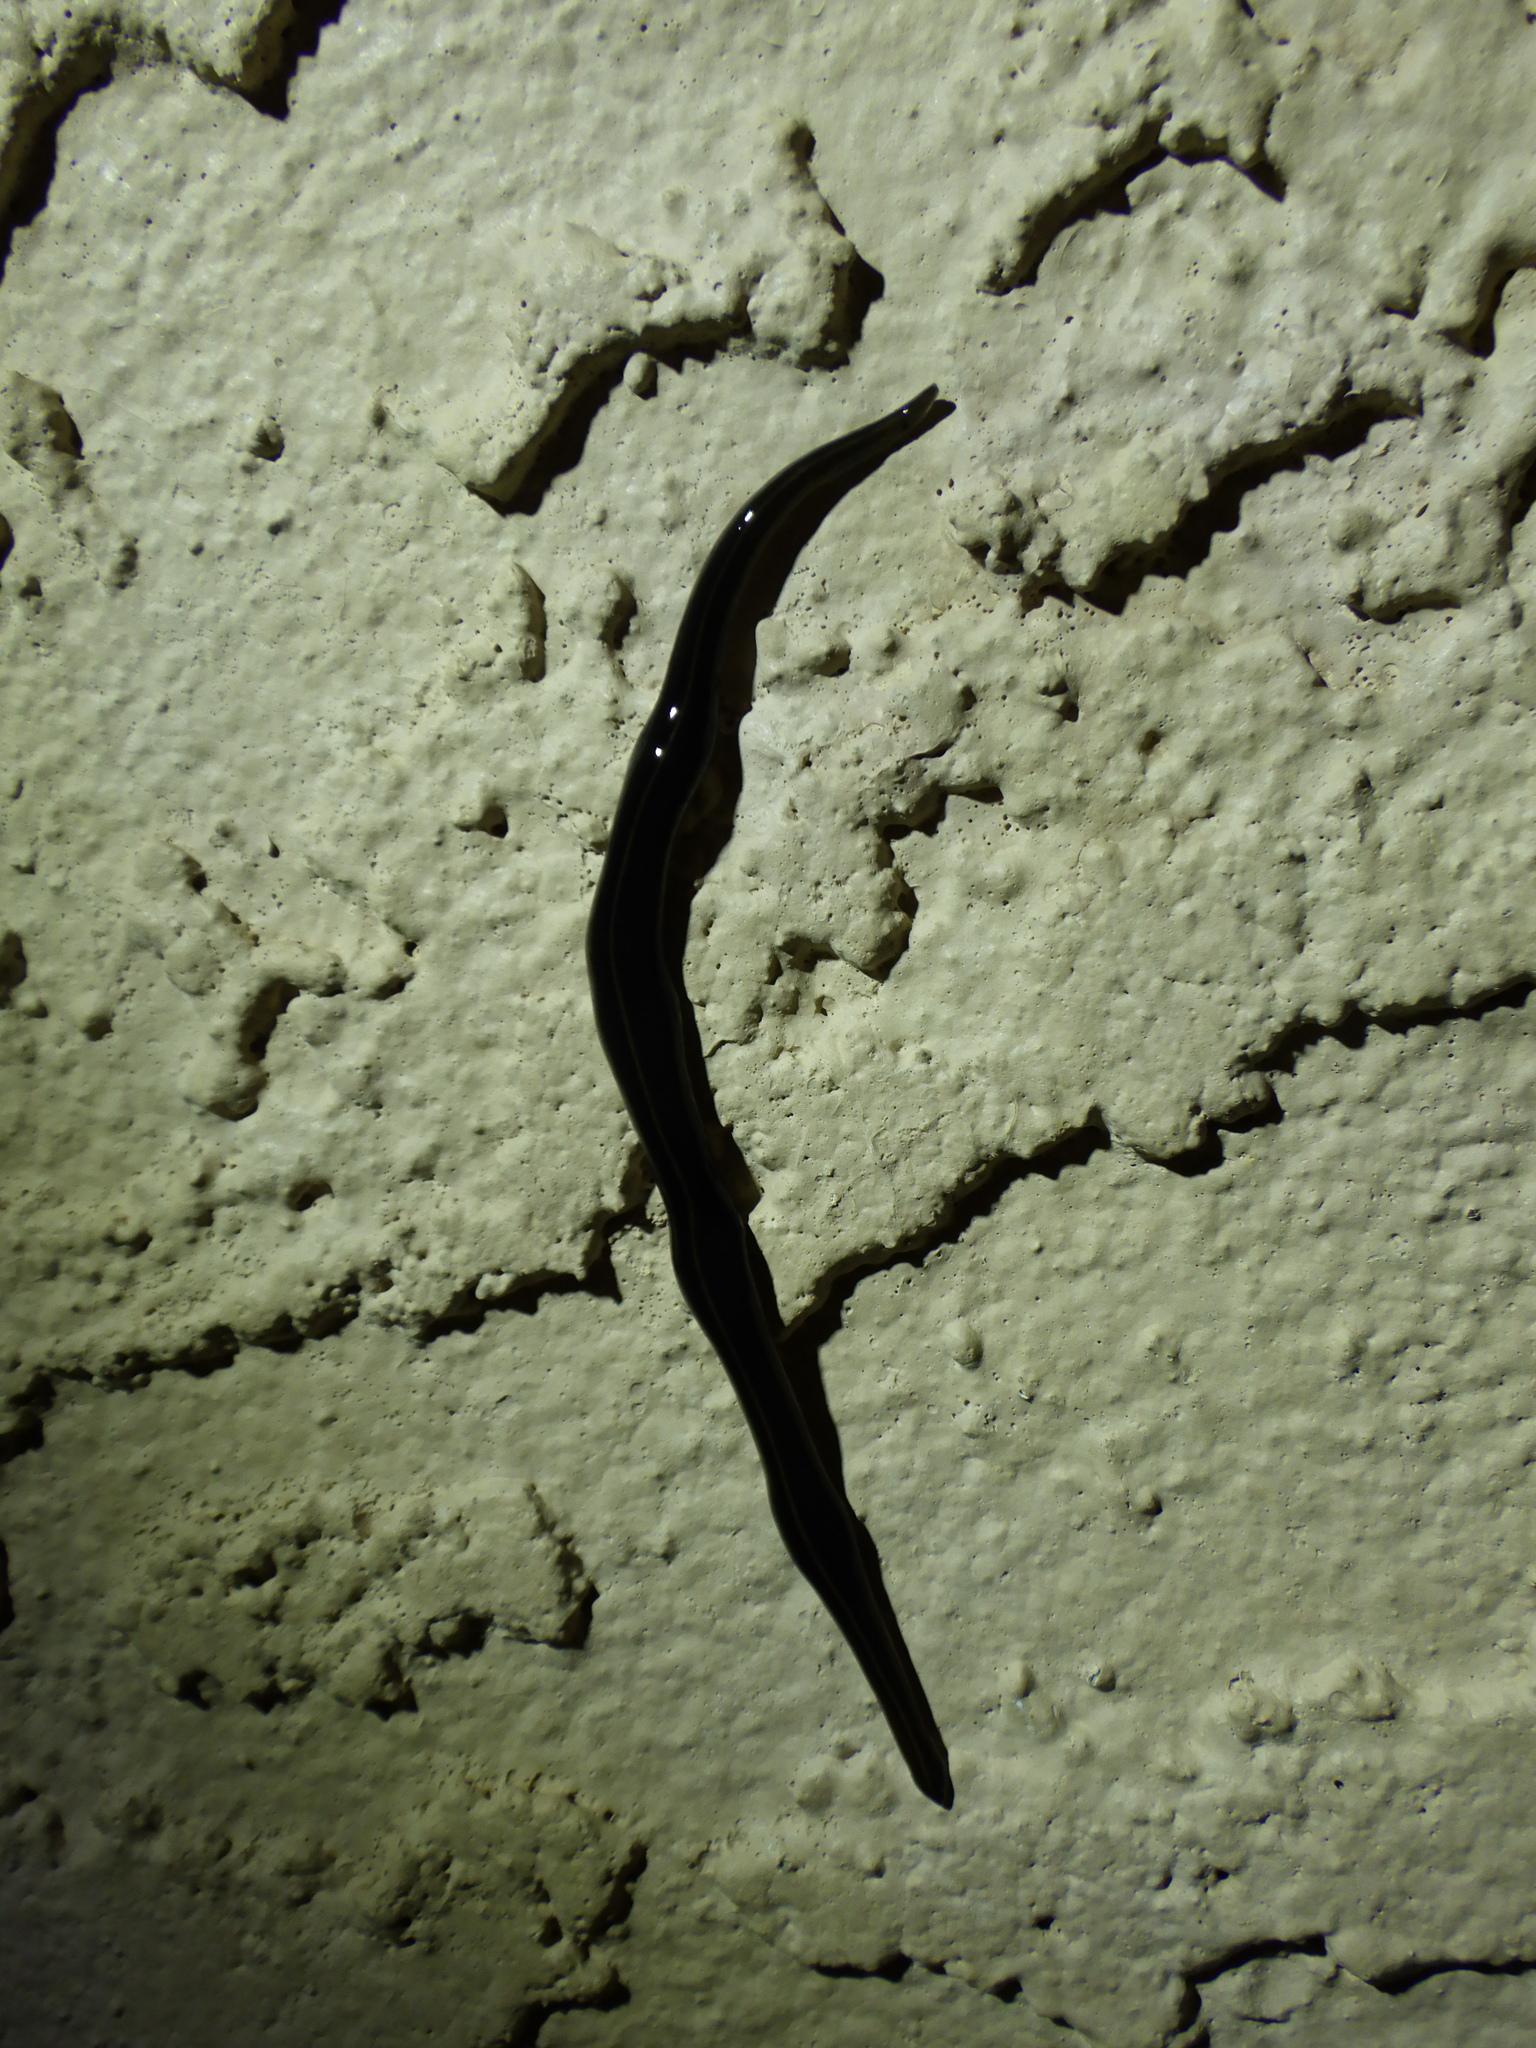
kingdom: Animalia
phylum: Platyhelminthes
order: Tricladida
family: Geoplanidae
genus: Platydemus
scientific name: Platydemus manokwari
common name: New guinea flatworm
